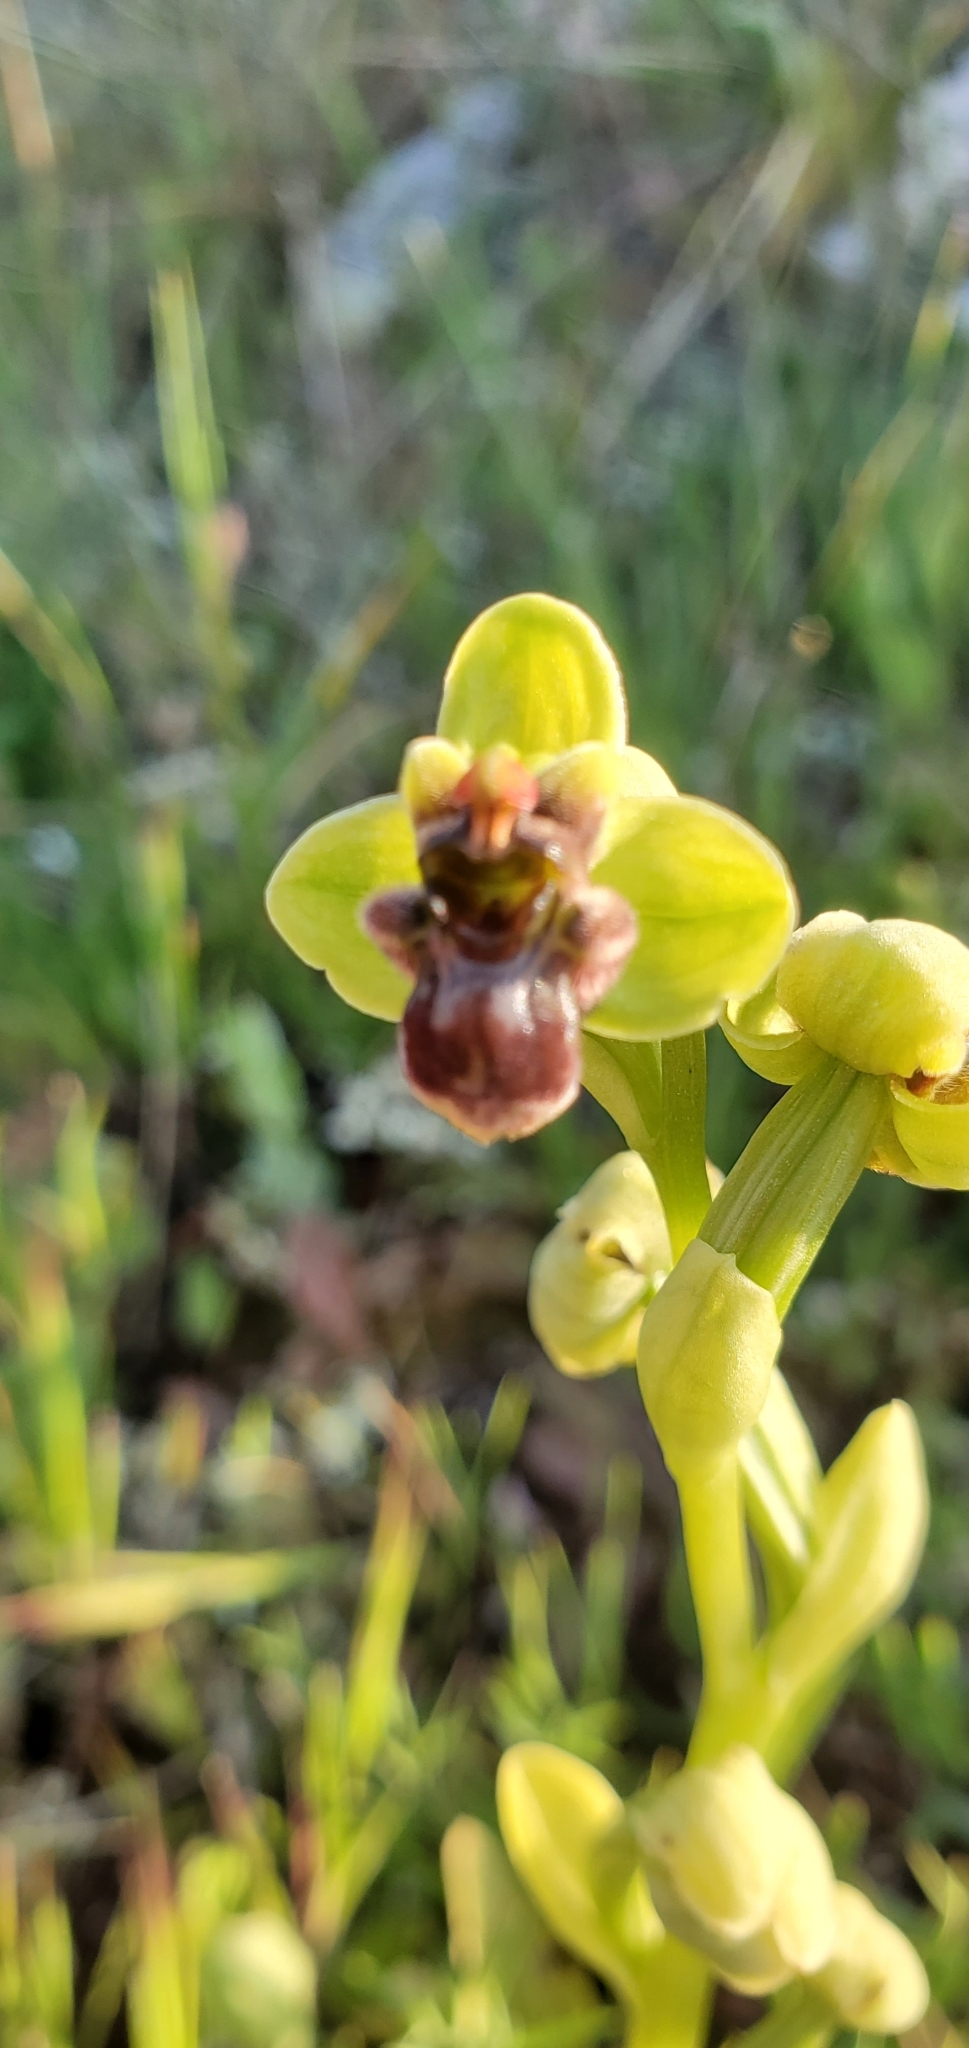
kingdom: Plantae
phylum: Tracheophyta
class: Liliopsida
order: Asparagales
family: Orchidaceae
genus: Ophrys
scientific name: Ophrys bombyliflora
